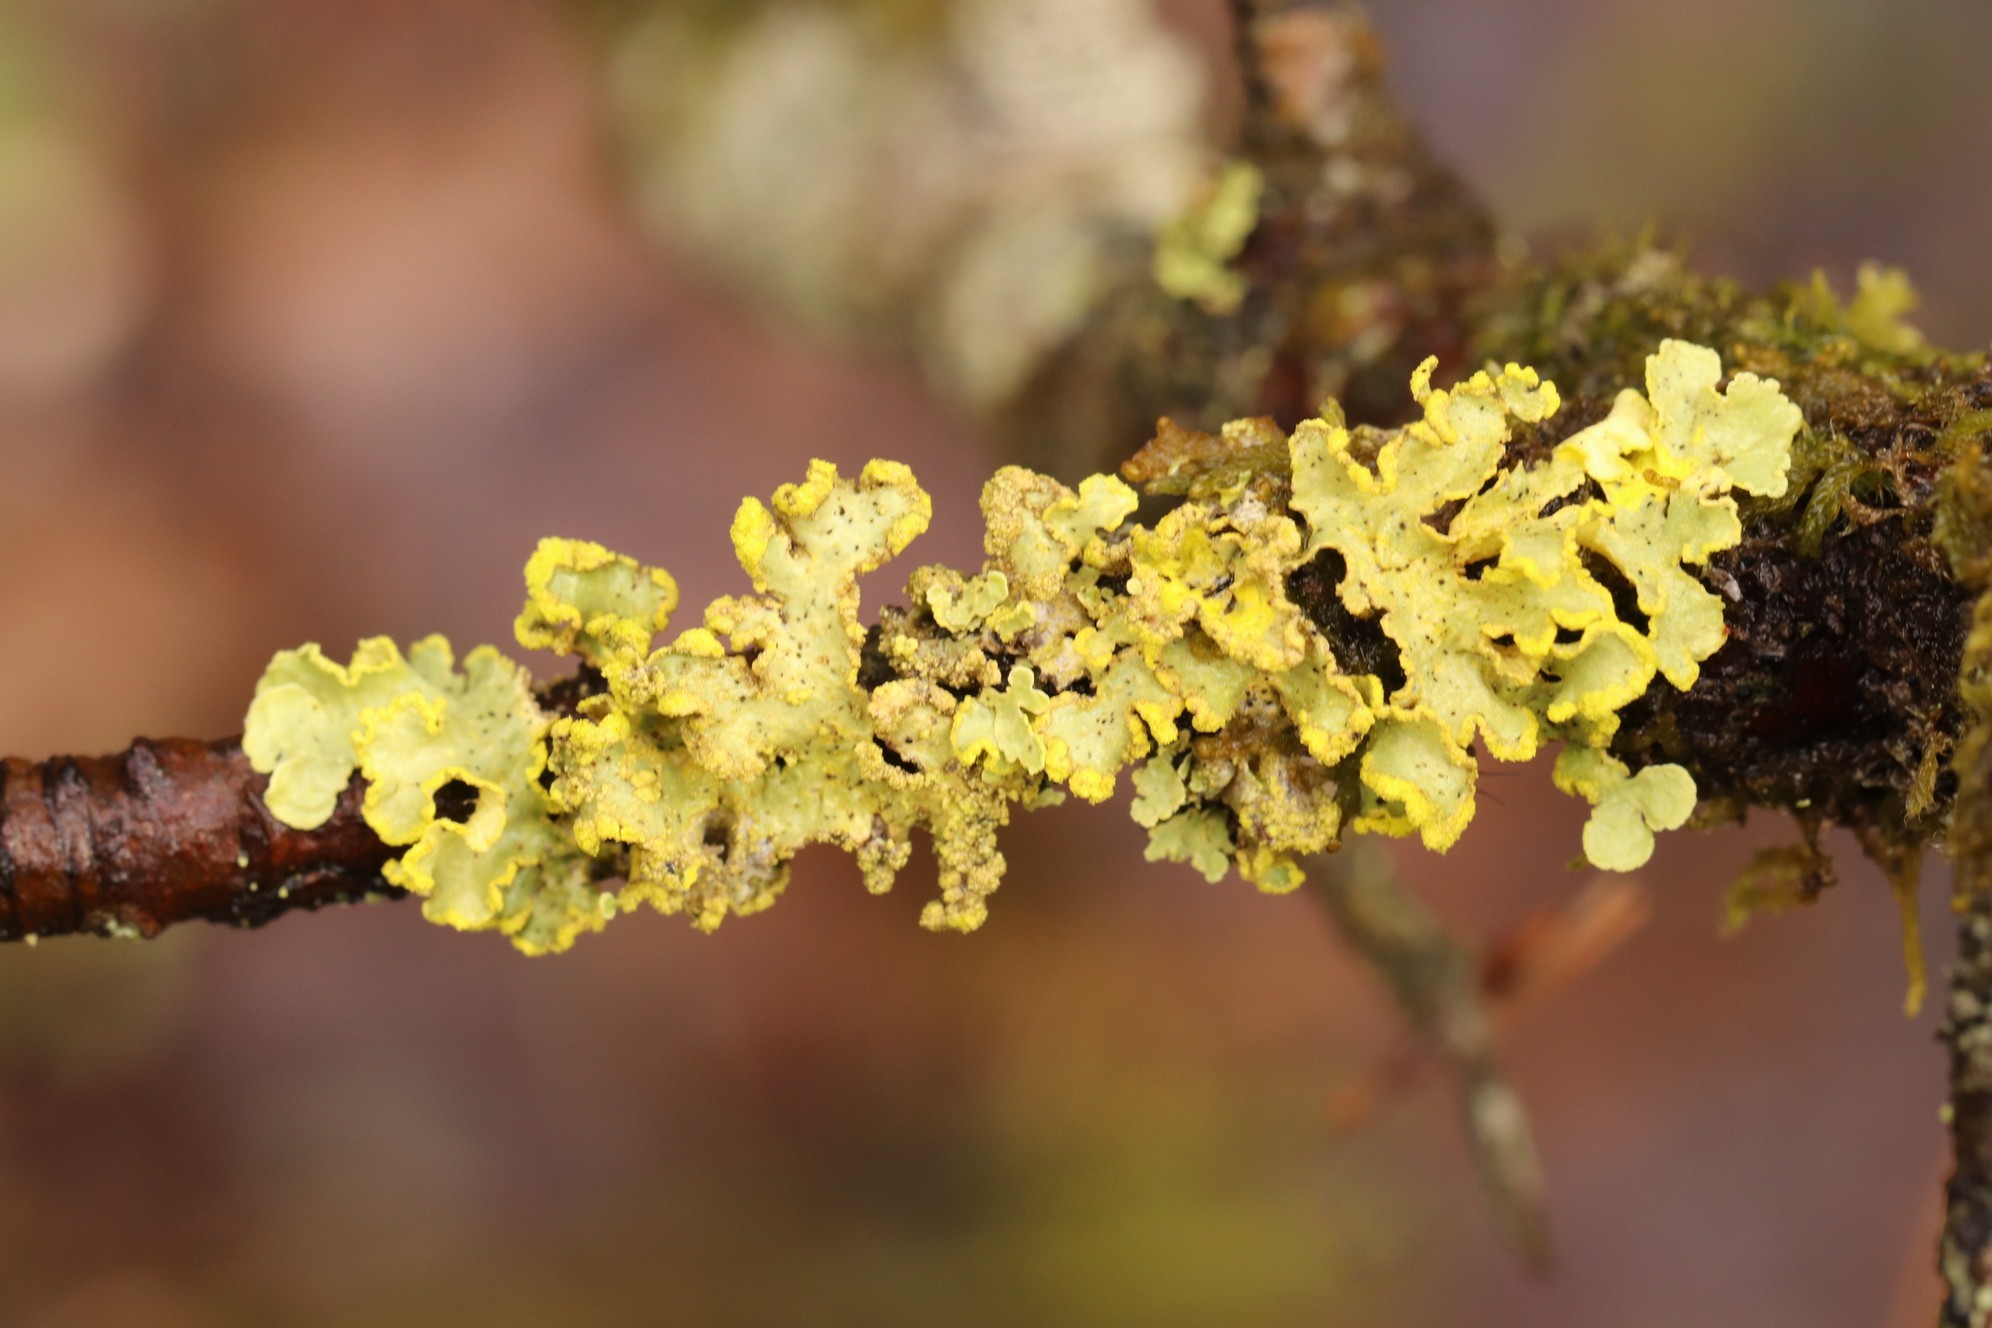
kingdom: Fungi
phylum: Ascomycota
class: Lecanoromycetes
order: Lecanorales
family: Parmeliaceae
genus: Vulpicida
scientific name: Vulpicida pinastri
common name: Powdered sunshine lichen
